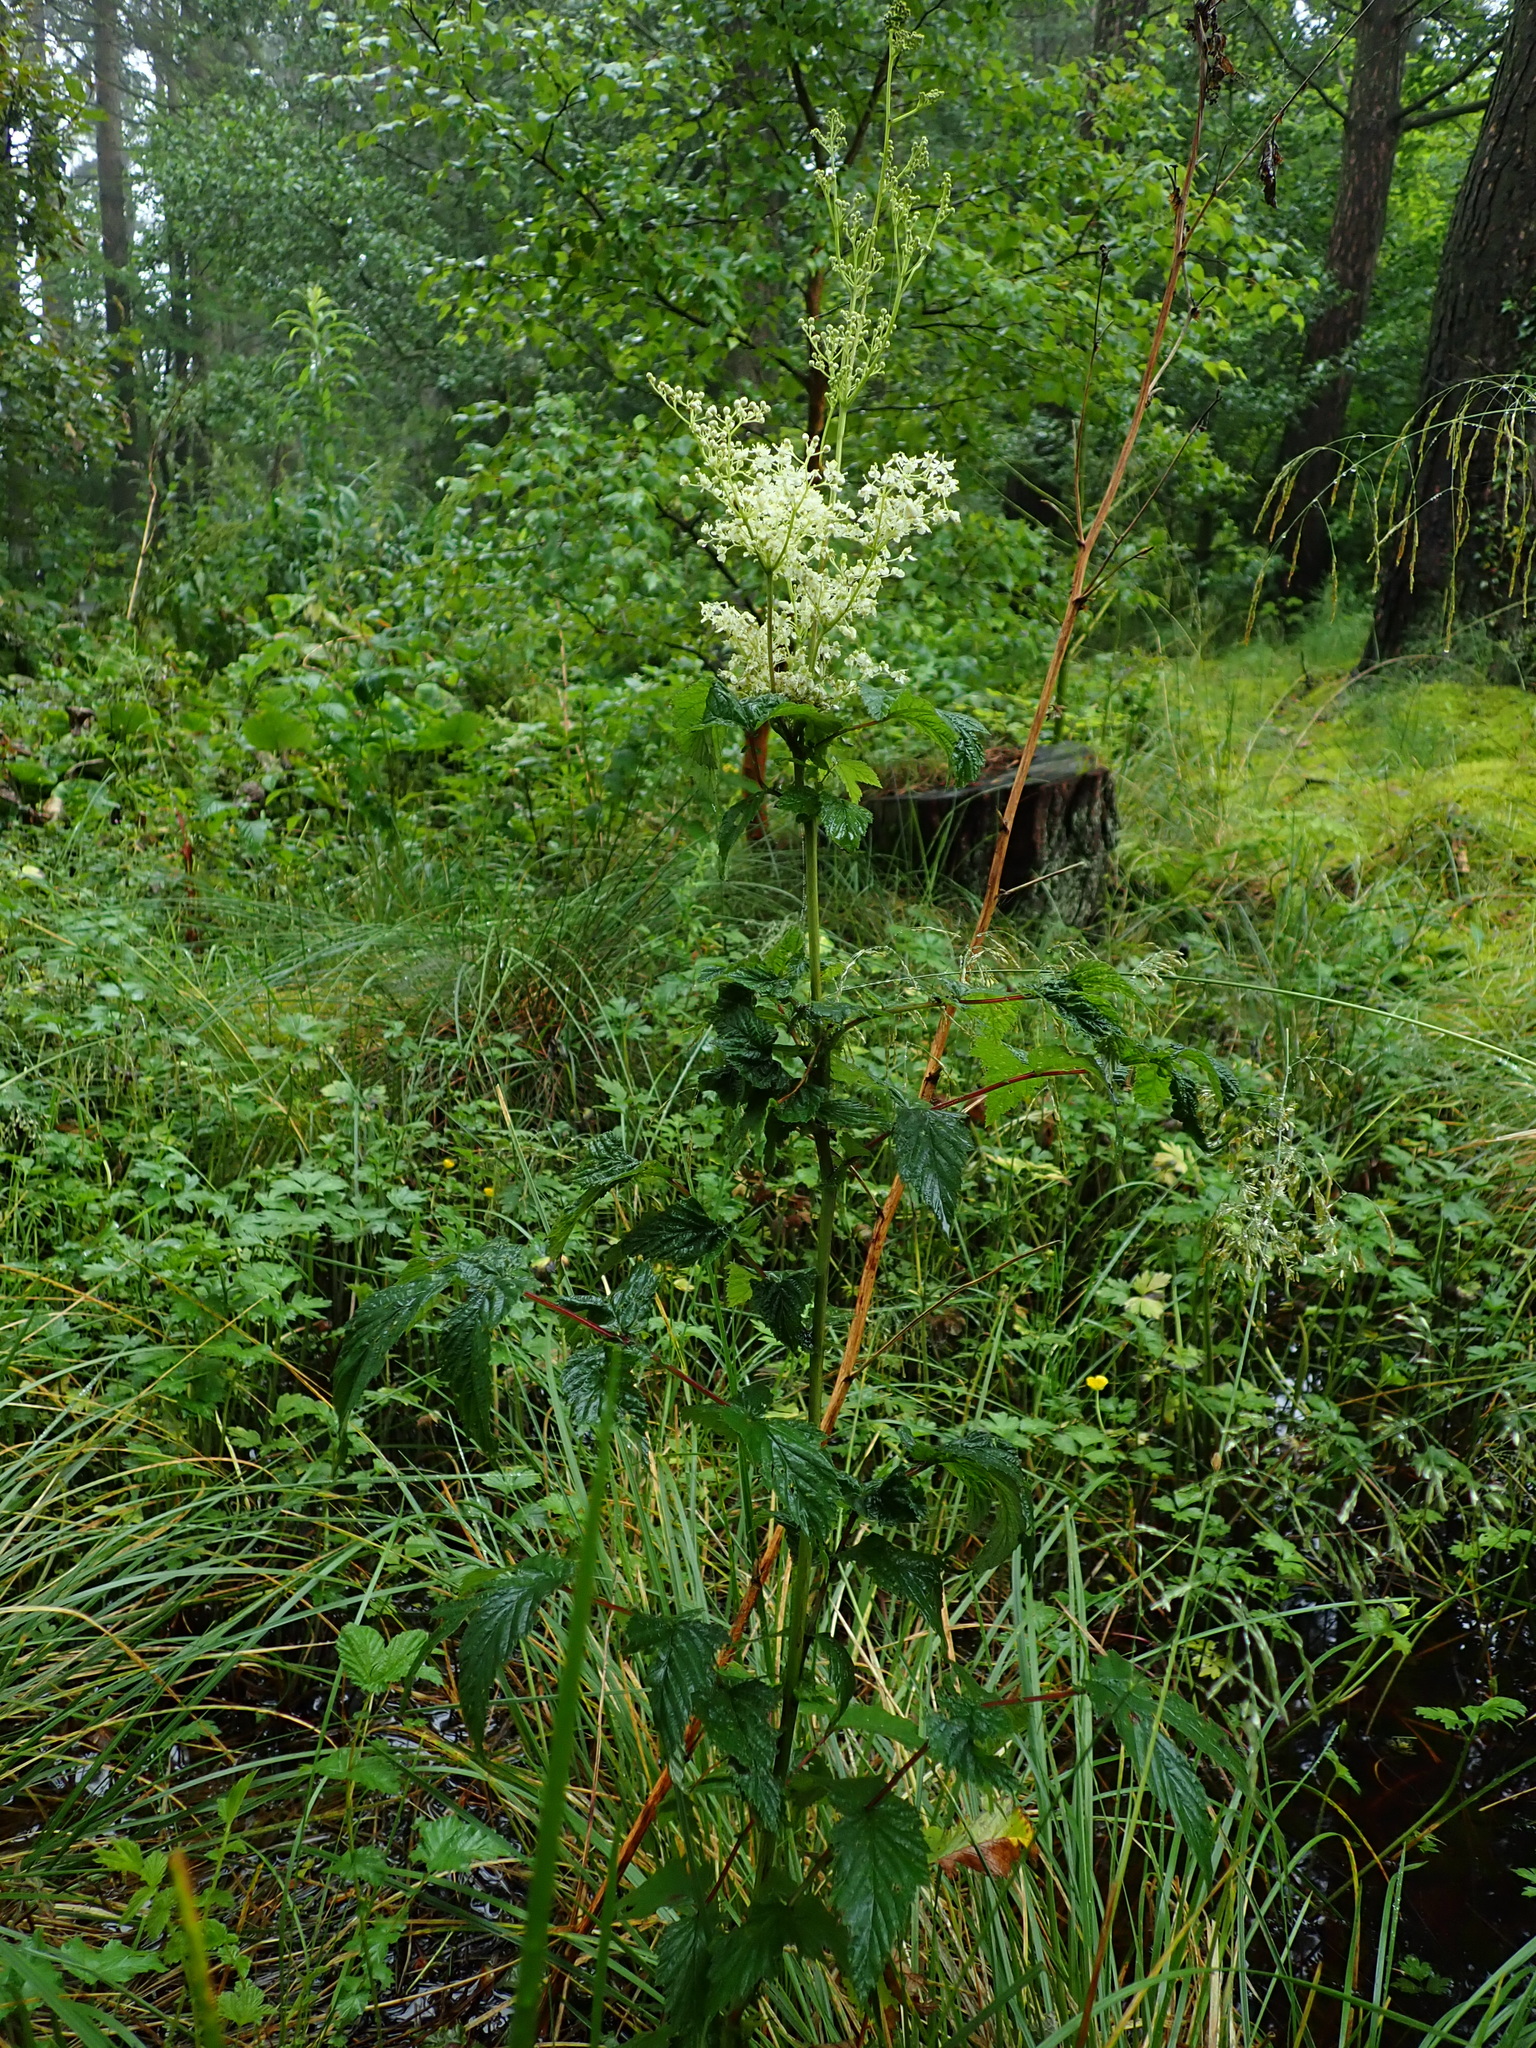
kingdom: Plantae
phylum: Tracheophyta
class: Magnoliopsida
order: Rosales
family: Rosaceae
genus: Filipendula
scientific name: Filipendula ulmaria
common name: Meadowsweet
